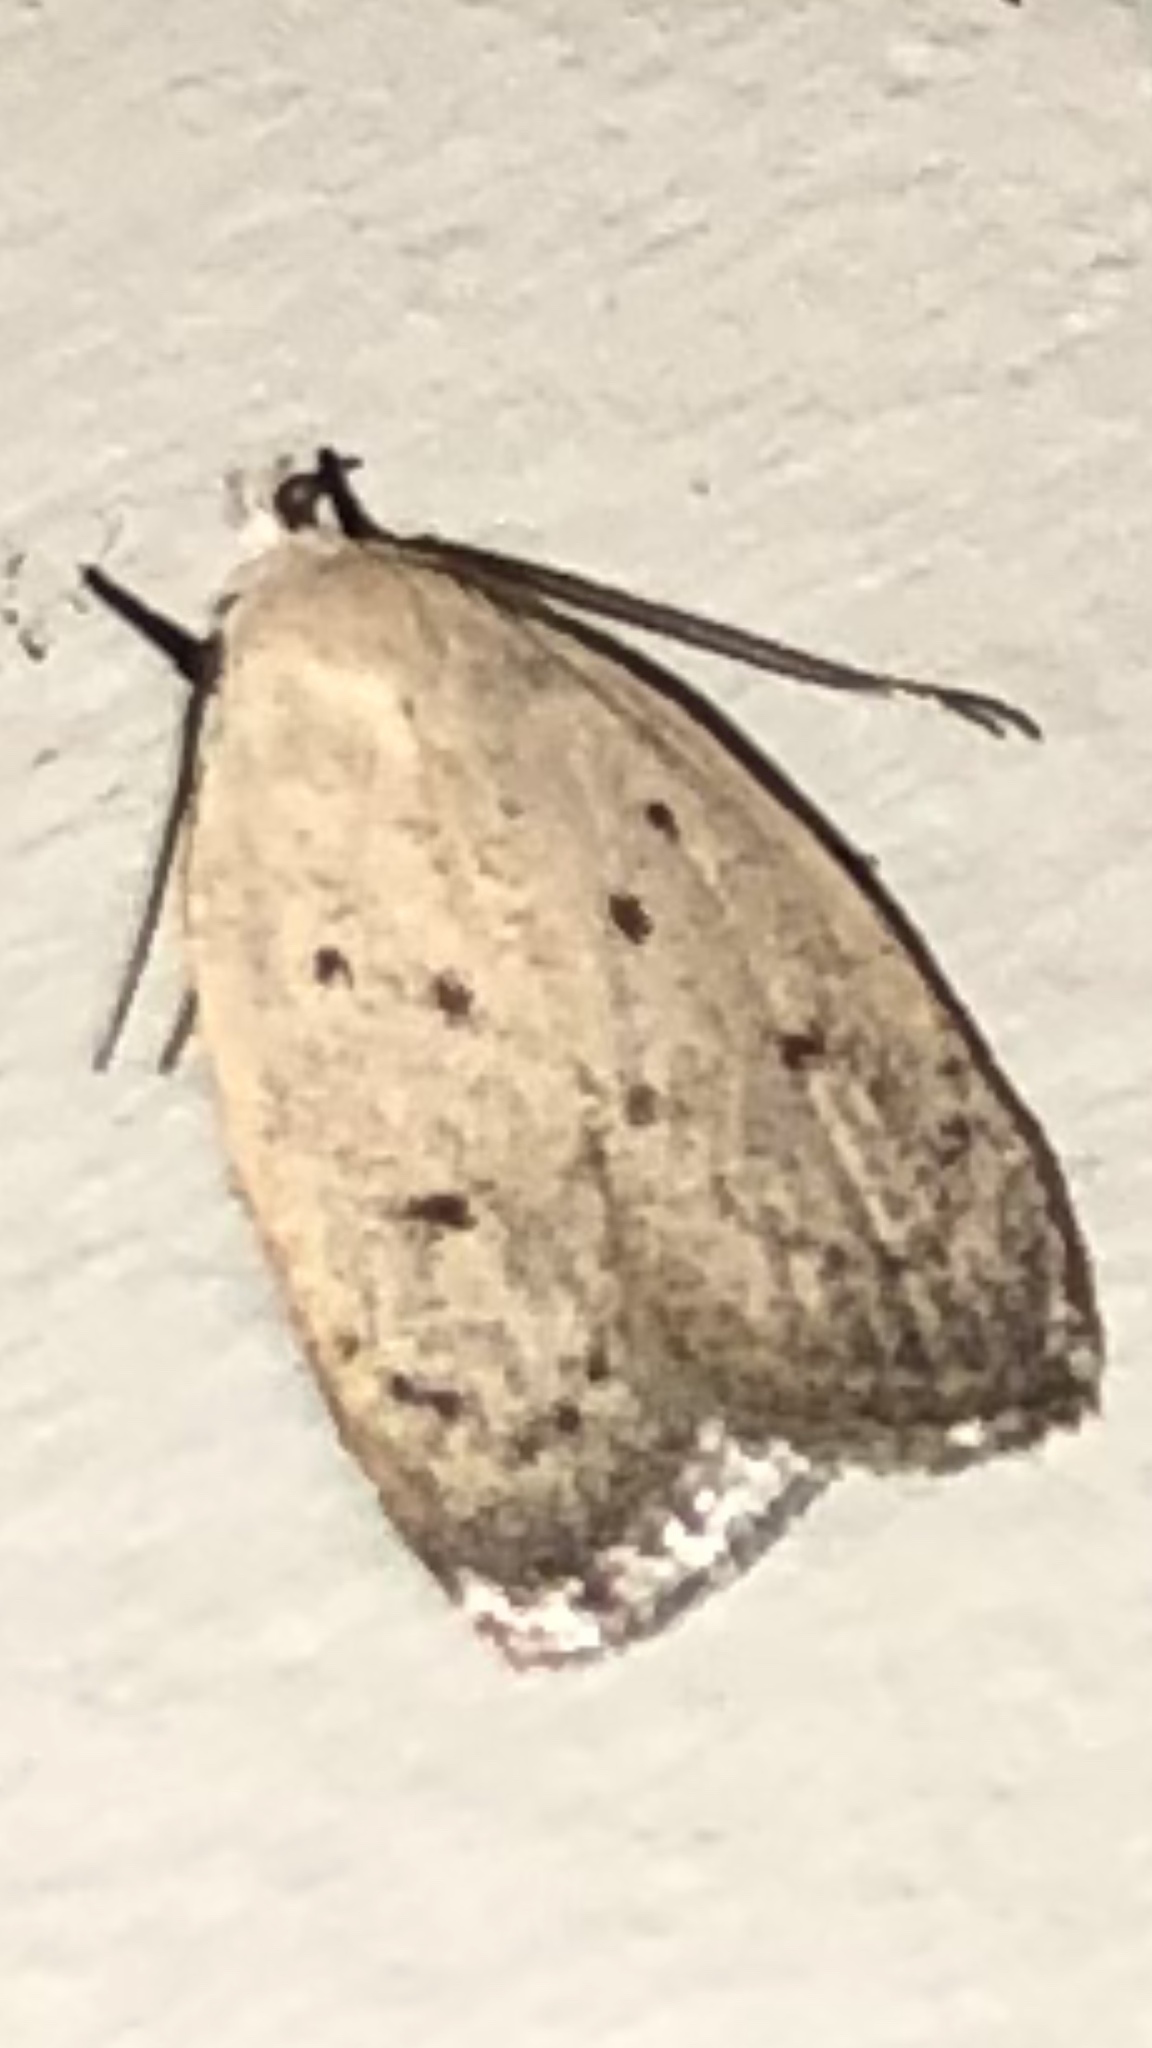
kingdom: Animalia
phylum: Arthropoda
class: Insecta
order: Lepidoptera
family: Oecophoridae
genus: Inga
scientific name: Inga cretacea
